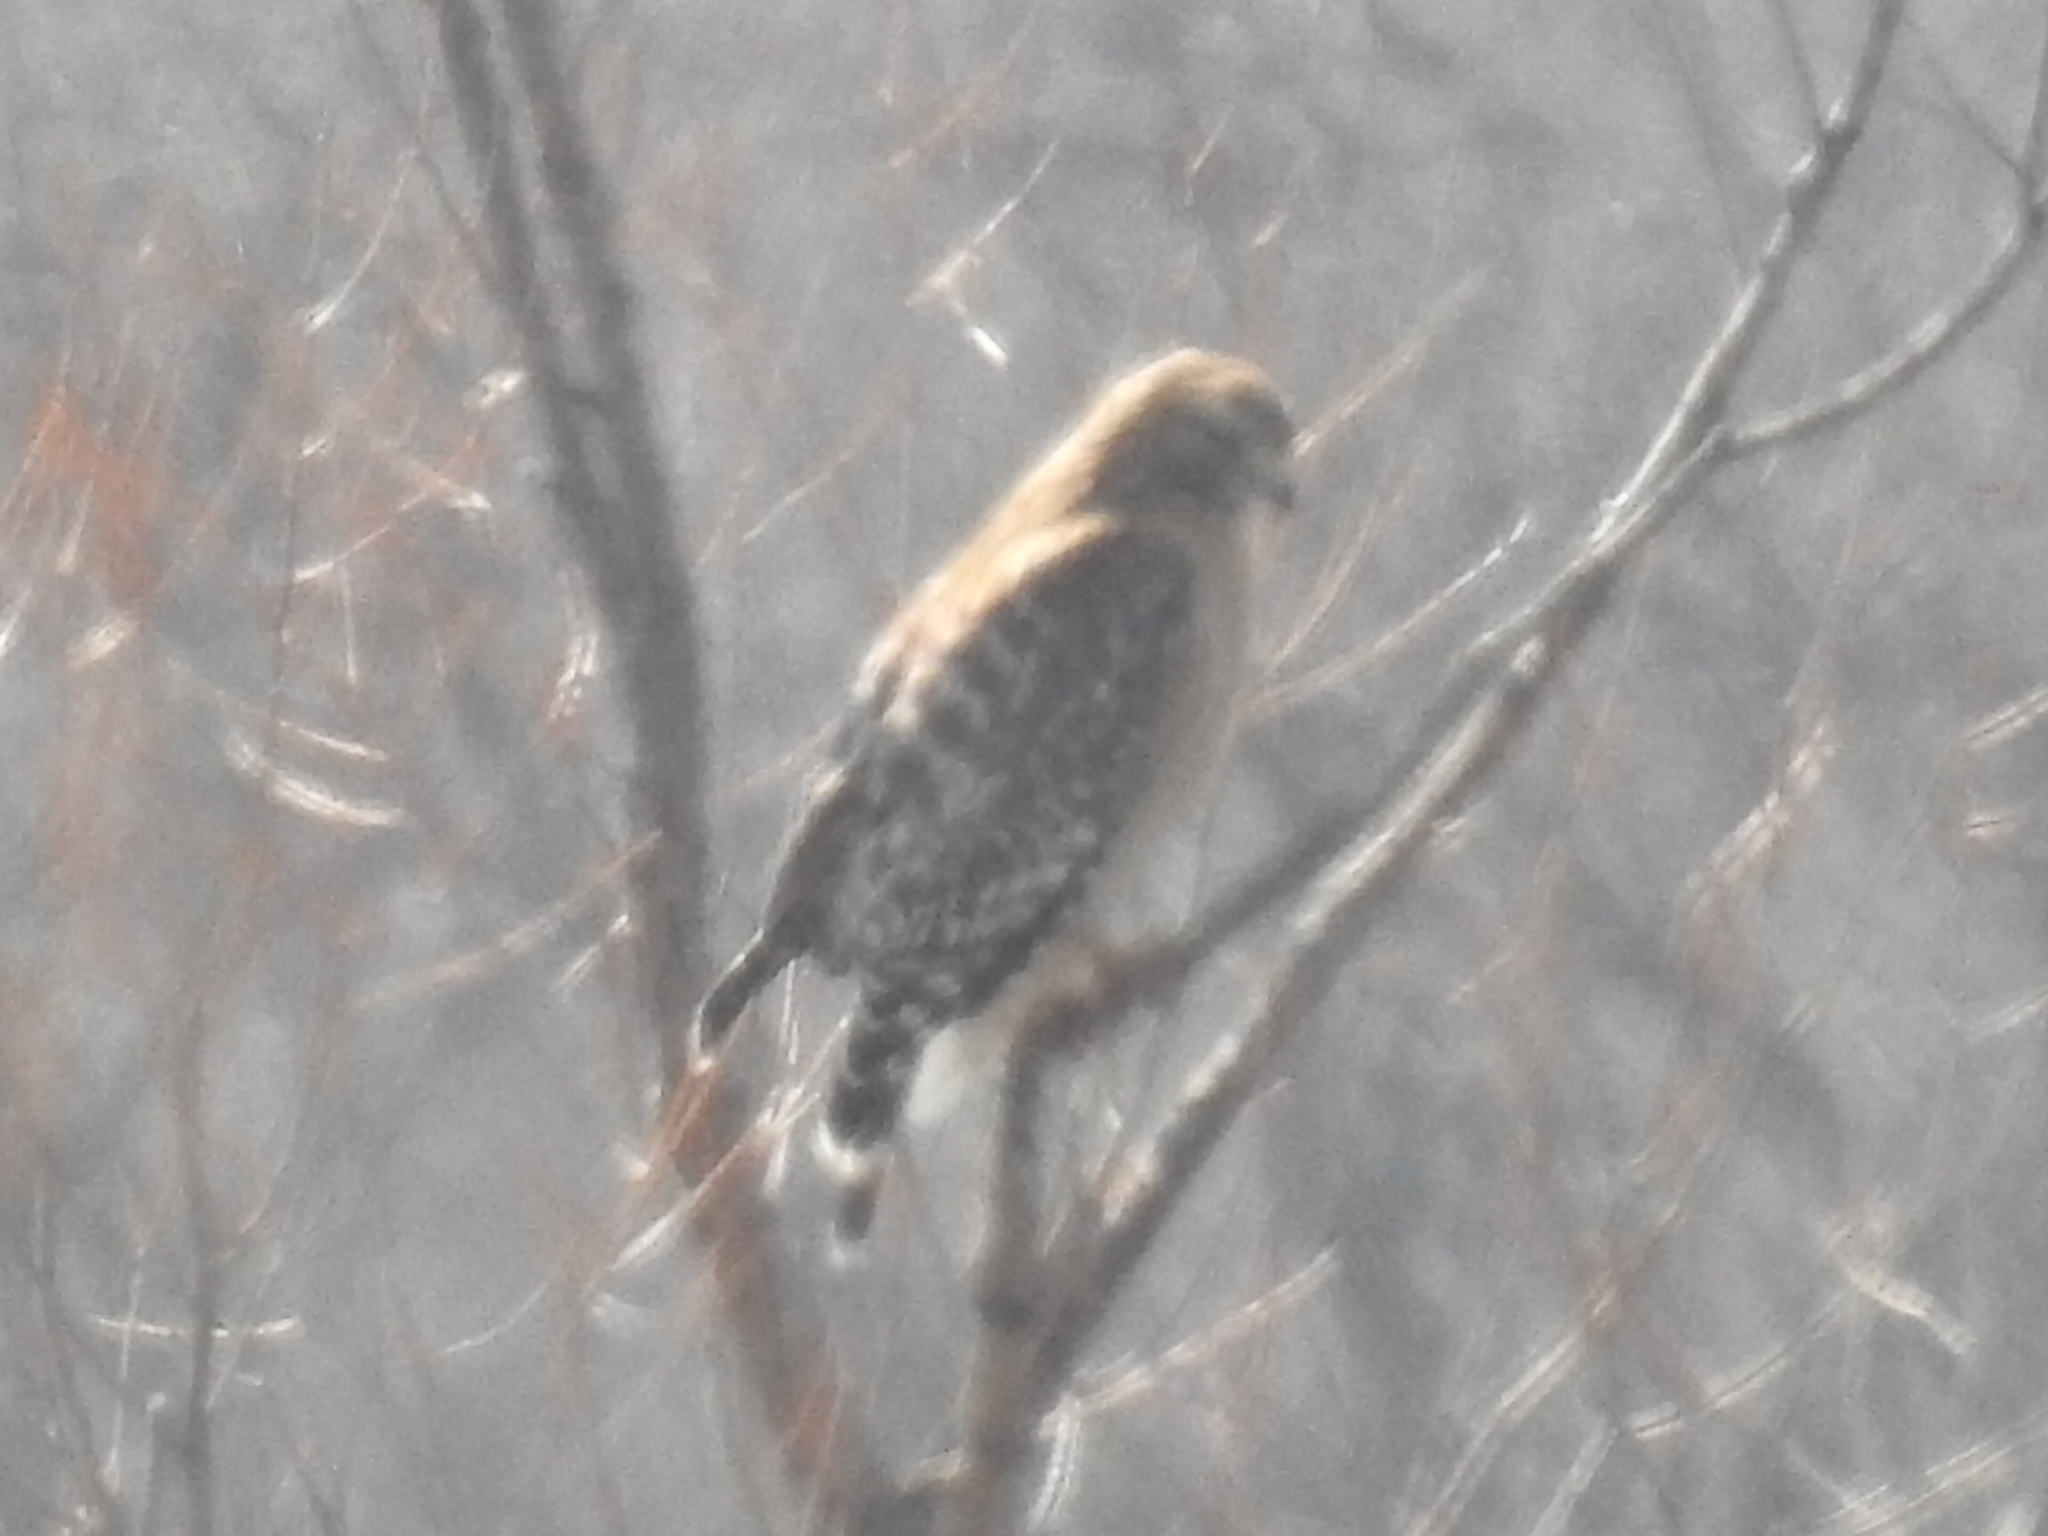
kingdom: Animalia
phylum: Chordata
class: Aves
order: Accipitriformes
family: Accipitridae
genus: Buteo
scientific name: Buteo lineatus
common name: Red-shouldered hawk
